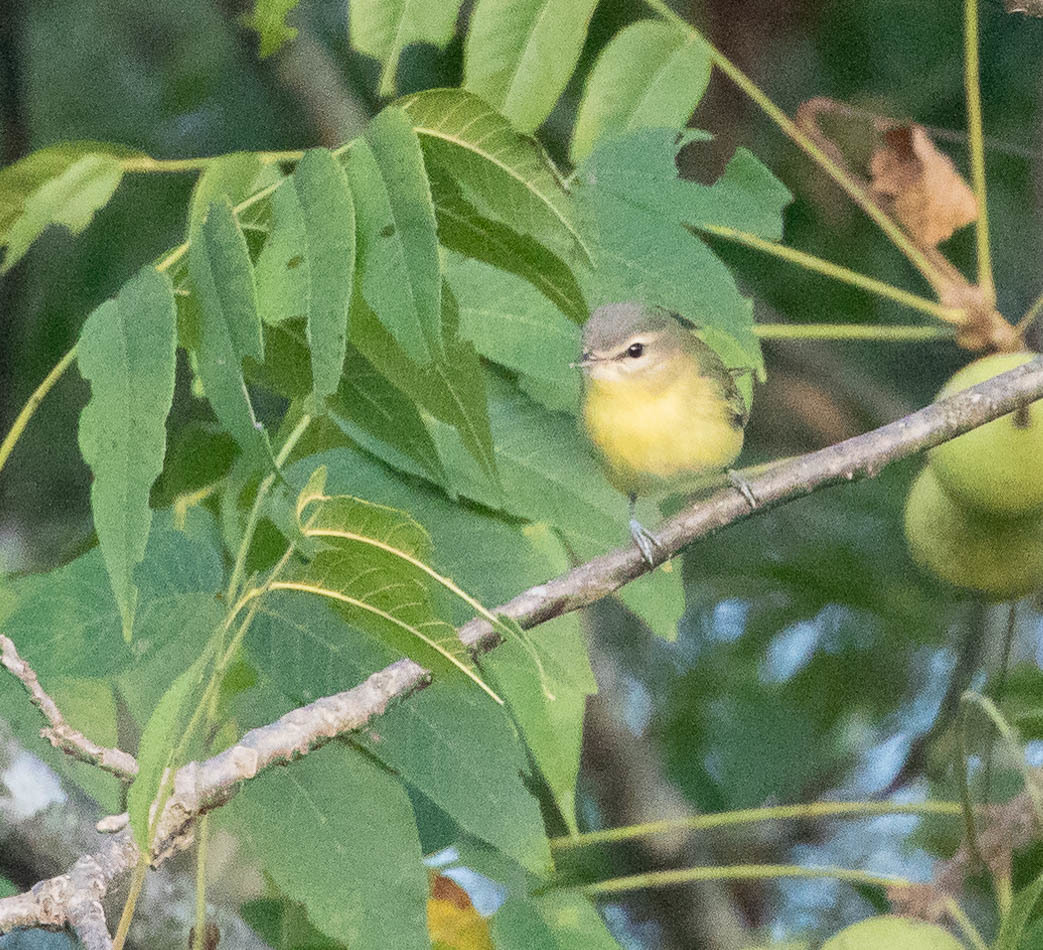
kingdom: Animalia
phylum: Chordata
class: Aves
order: Passeriformes
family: Vireonidae
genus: Vireo
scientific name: Vireo philadelphicus
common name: Philadelphia vireo
